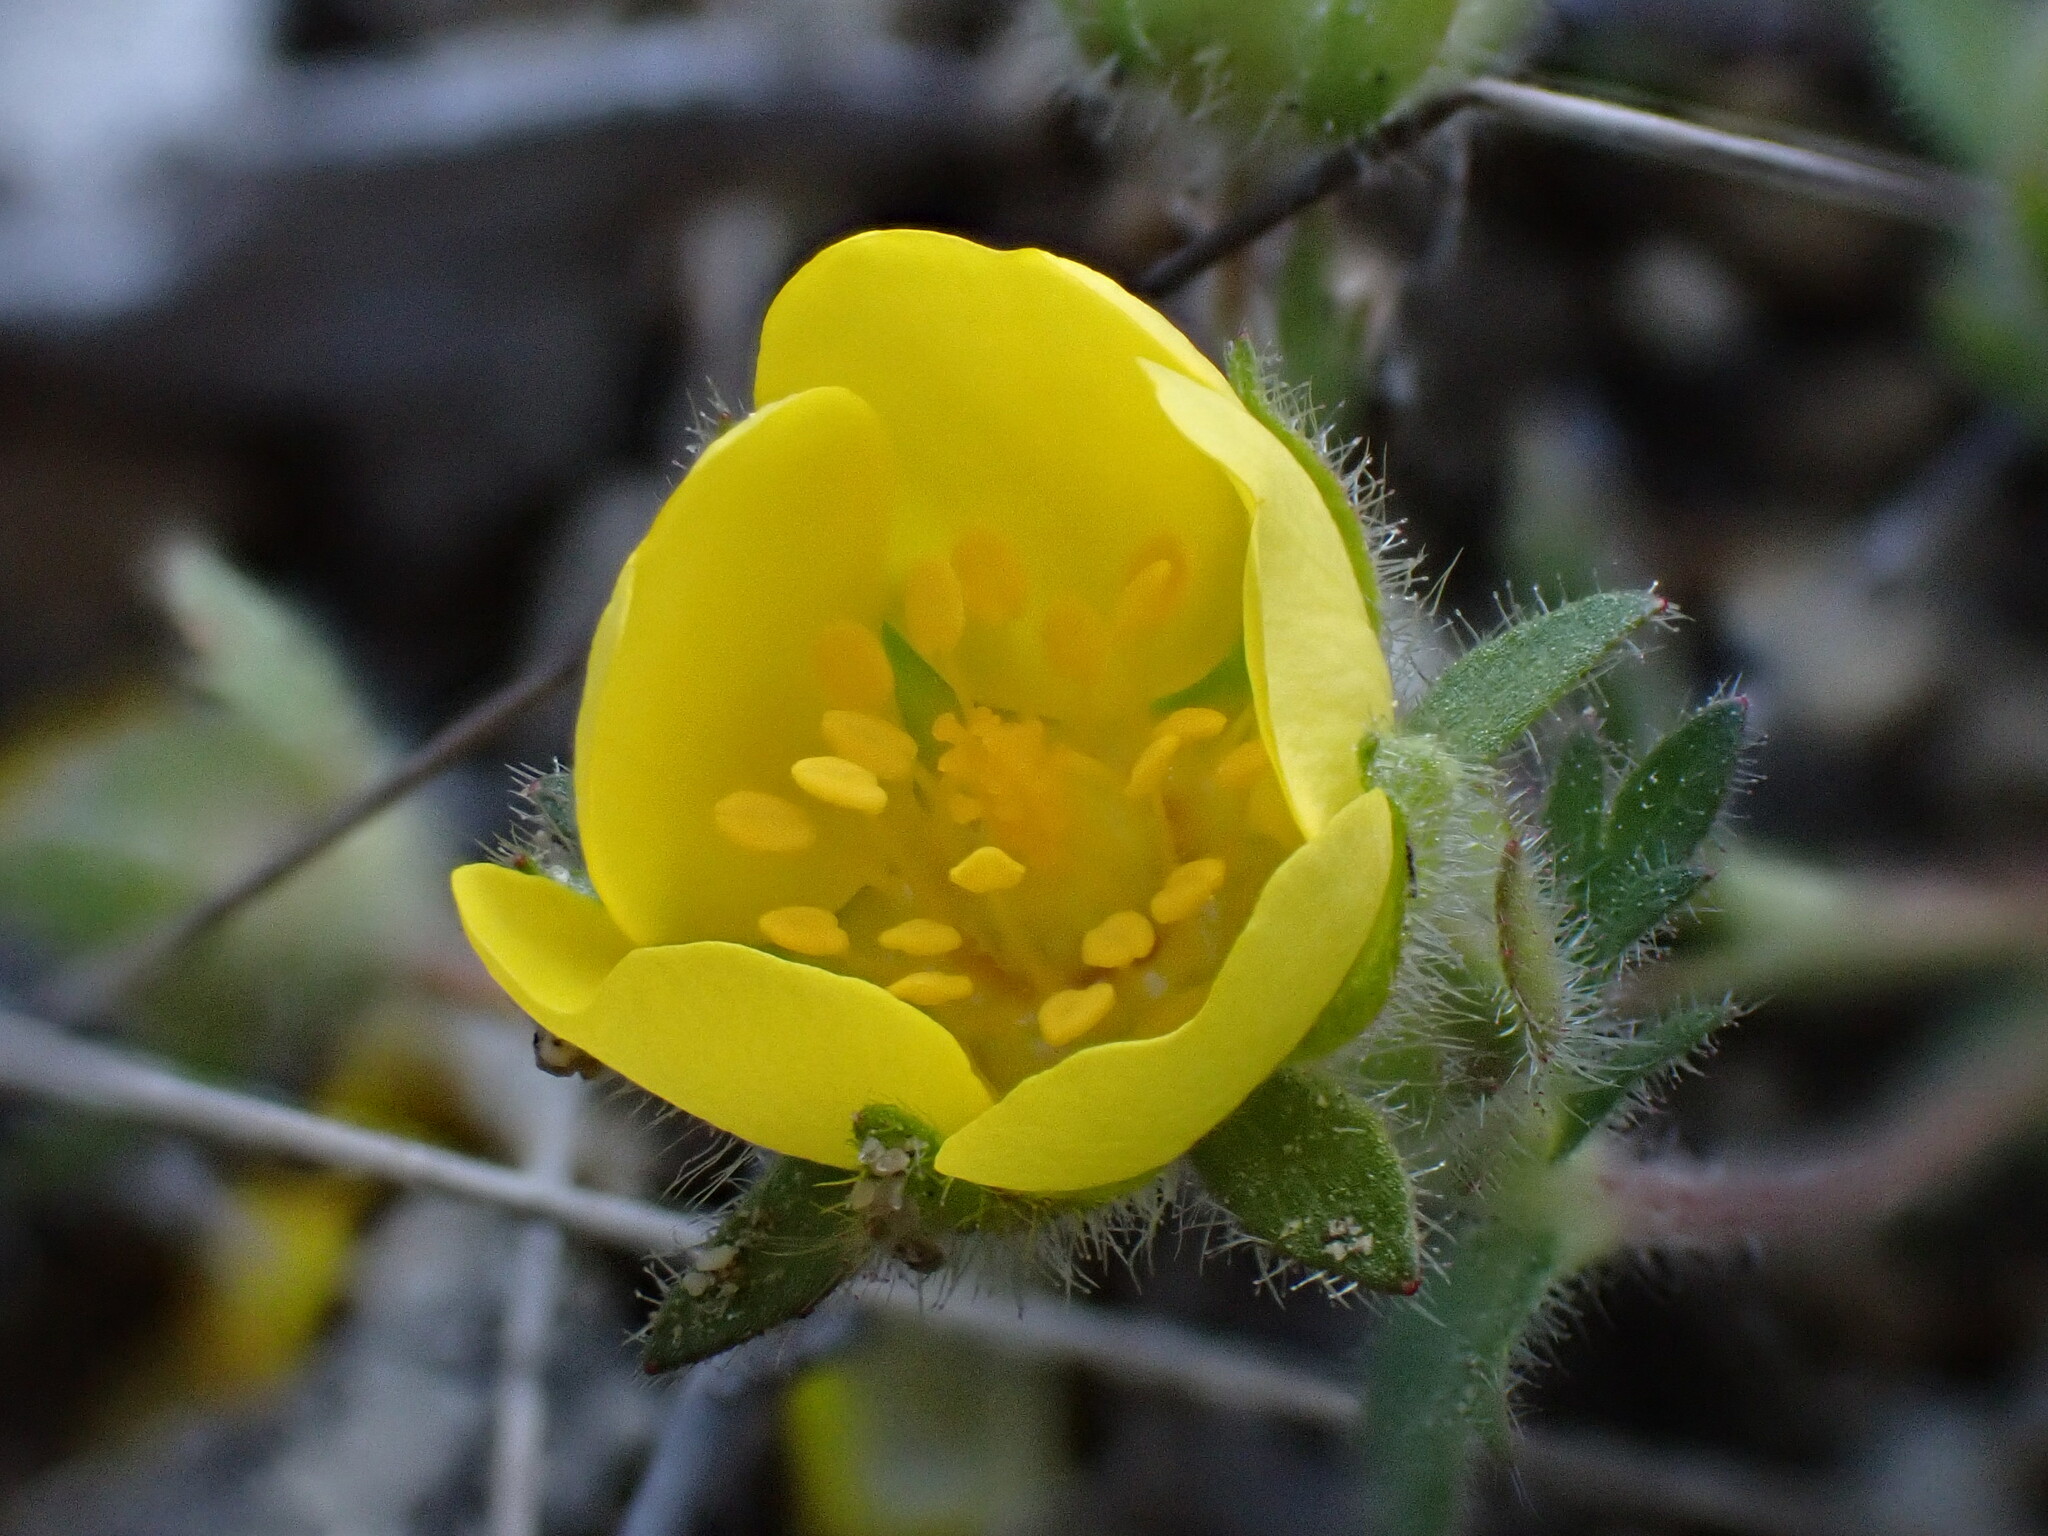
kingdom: Plantae
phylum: Tracheophyta
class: Magnoliopsida
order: Rosales
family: Rosaceae
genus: Potentilla
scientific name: Potentilla verna
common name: Spring cinquefoil
